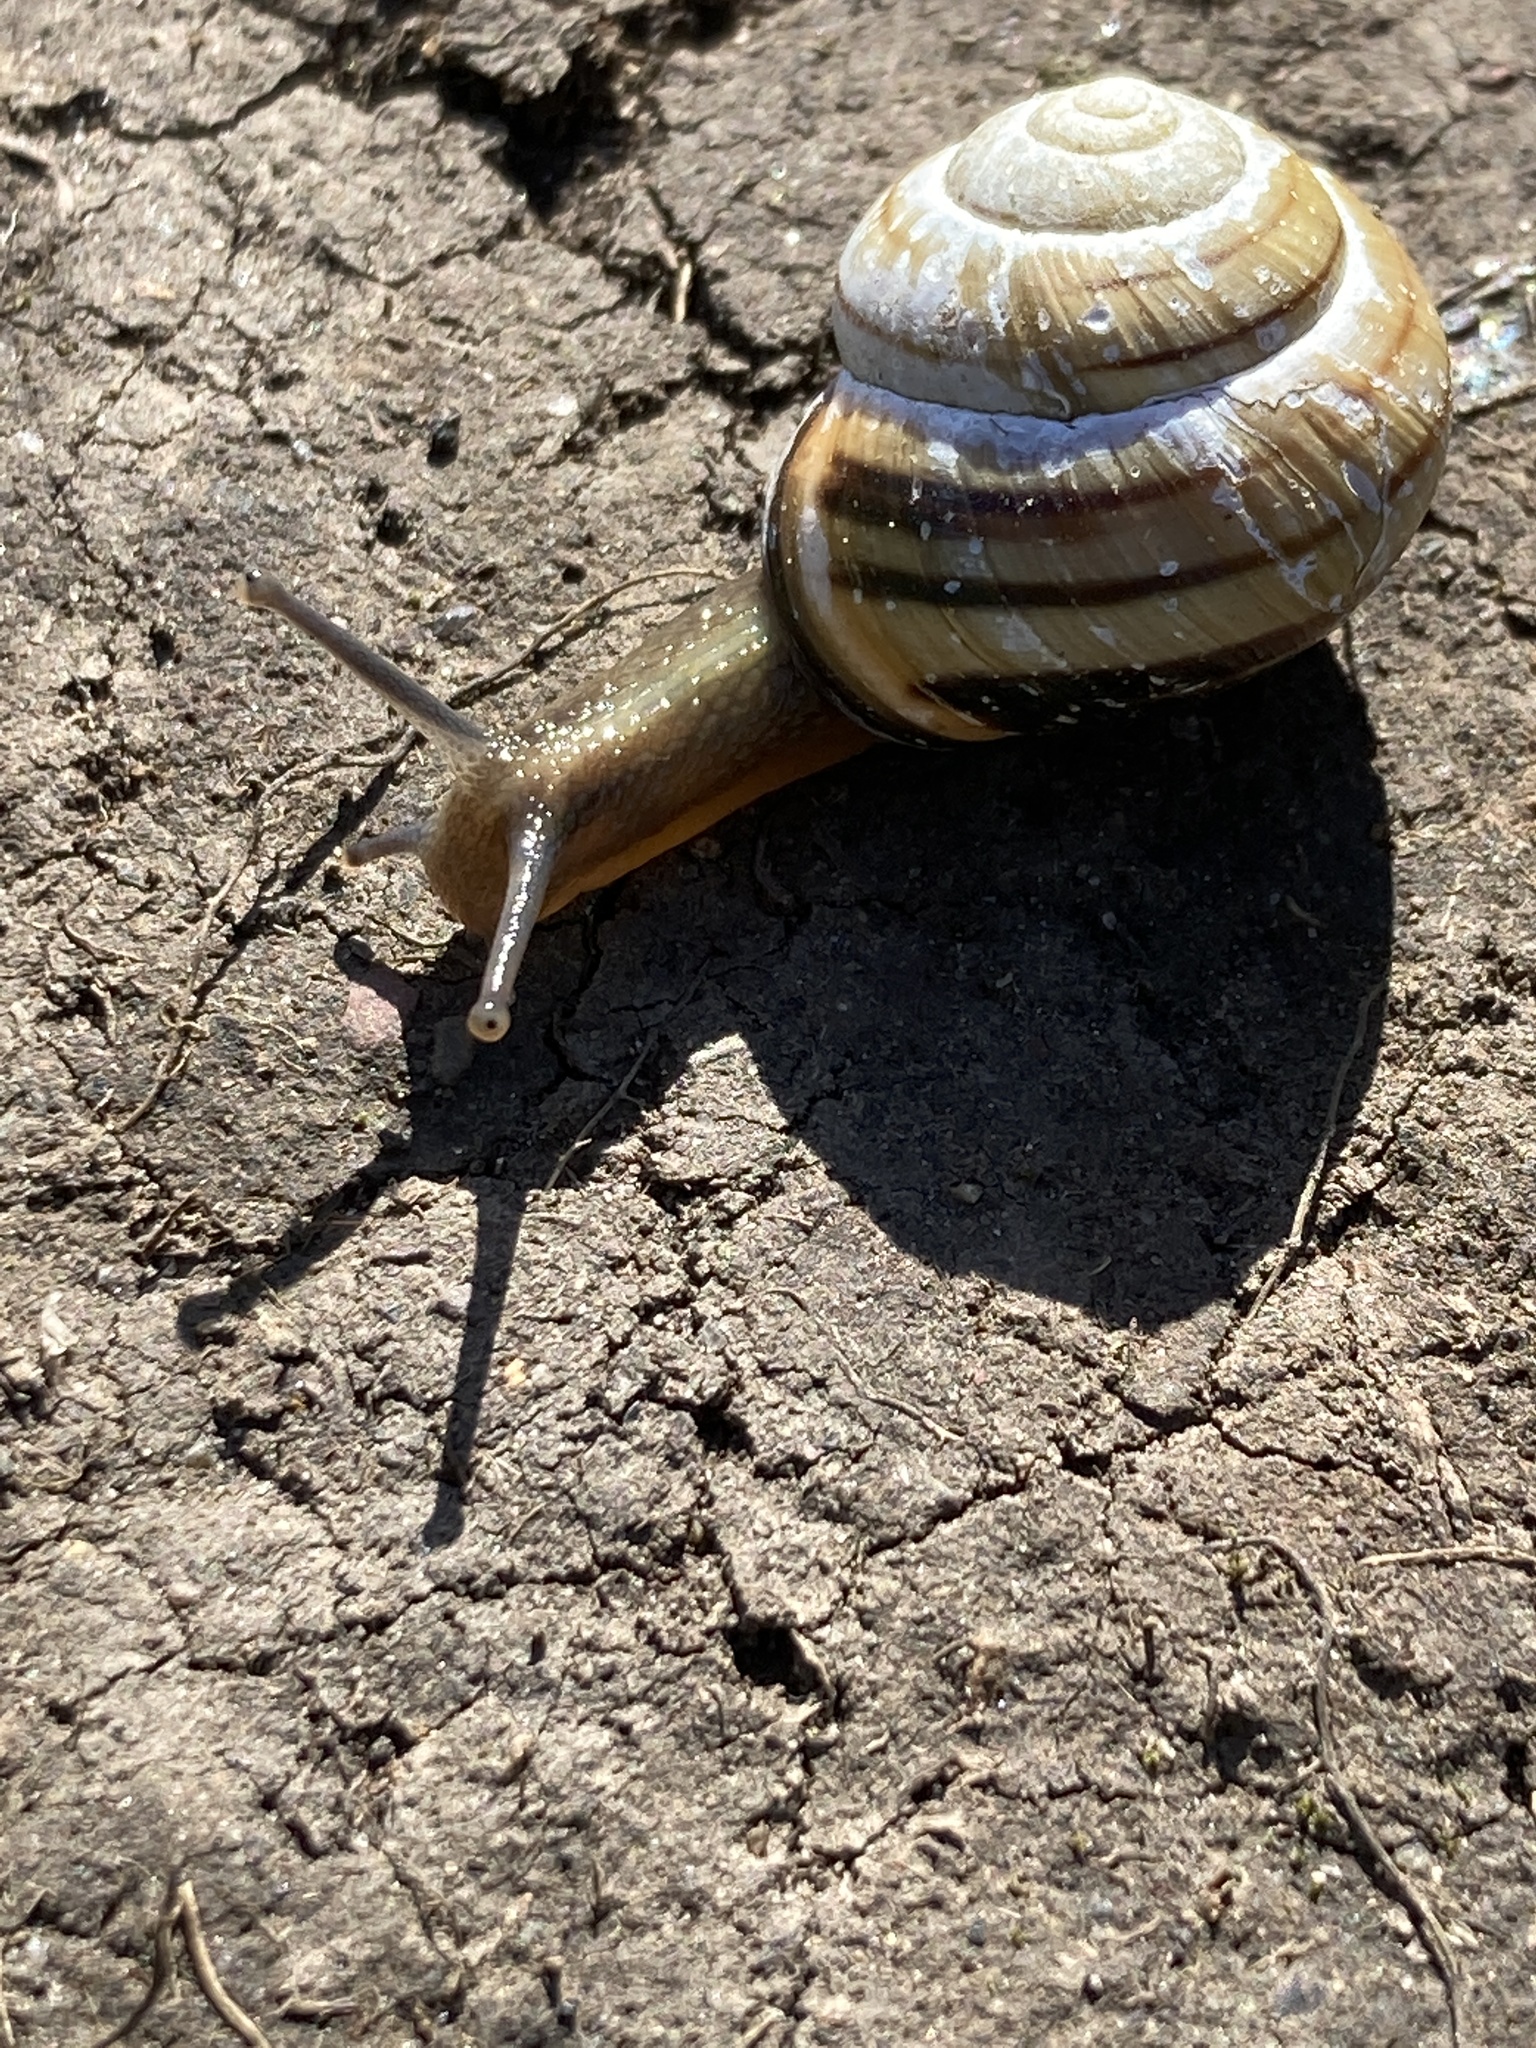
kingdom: Animalia
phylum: Mollusca
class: Gastropoda
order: Stylommatophora
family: Helicidae
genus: Cepaea
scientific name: Cepaea nemoralis
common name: Grovesnail
